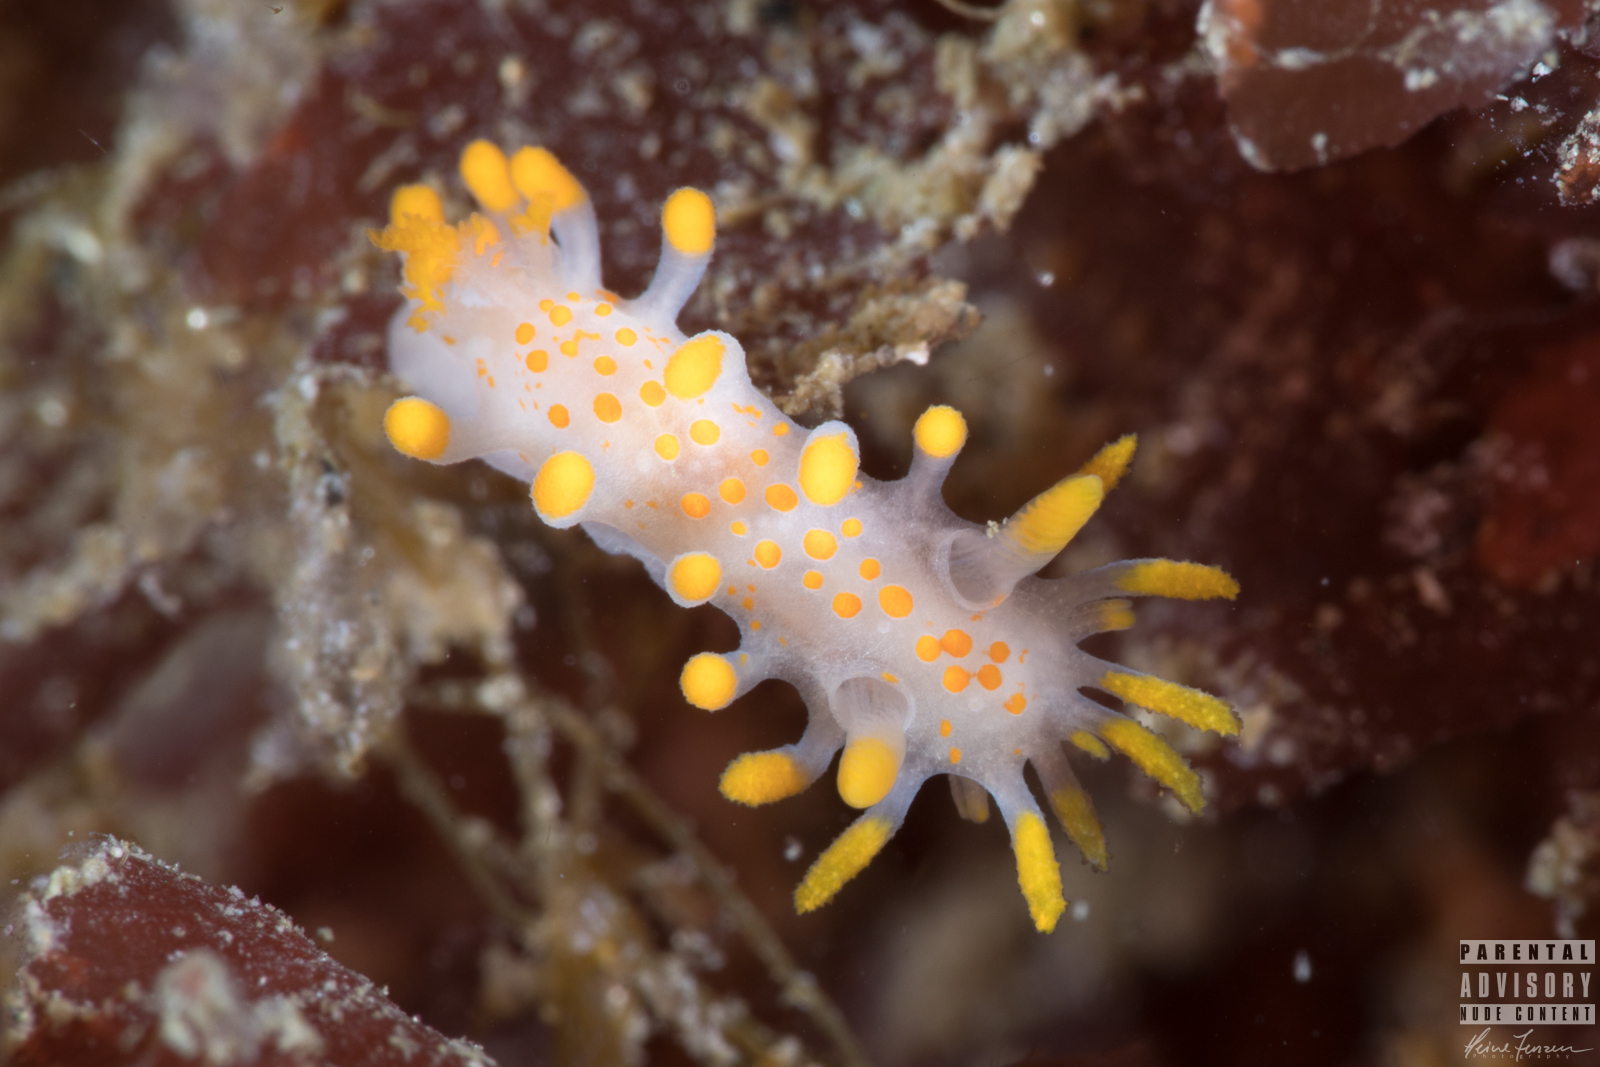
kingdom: Animalia
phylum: Mollusca
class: Gastropoda
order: Nudibranchia
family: Polyceridae
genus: Limacia
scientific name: Limacia clavigera
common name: Orange-clubbed sea slug
